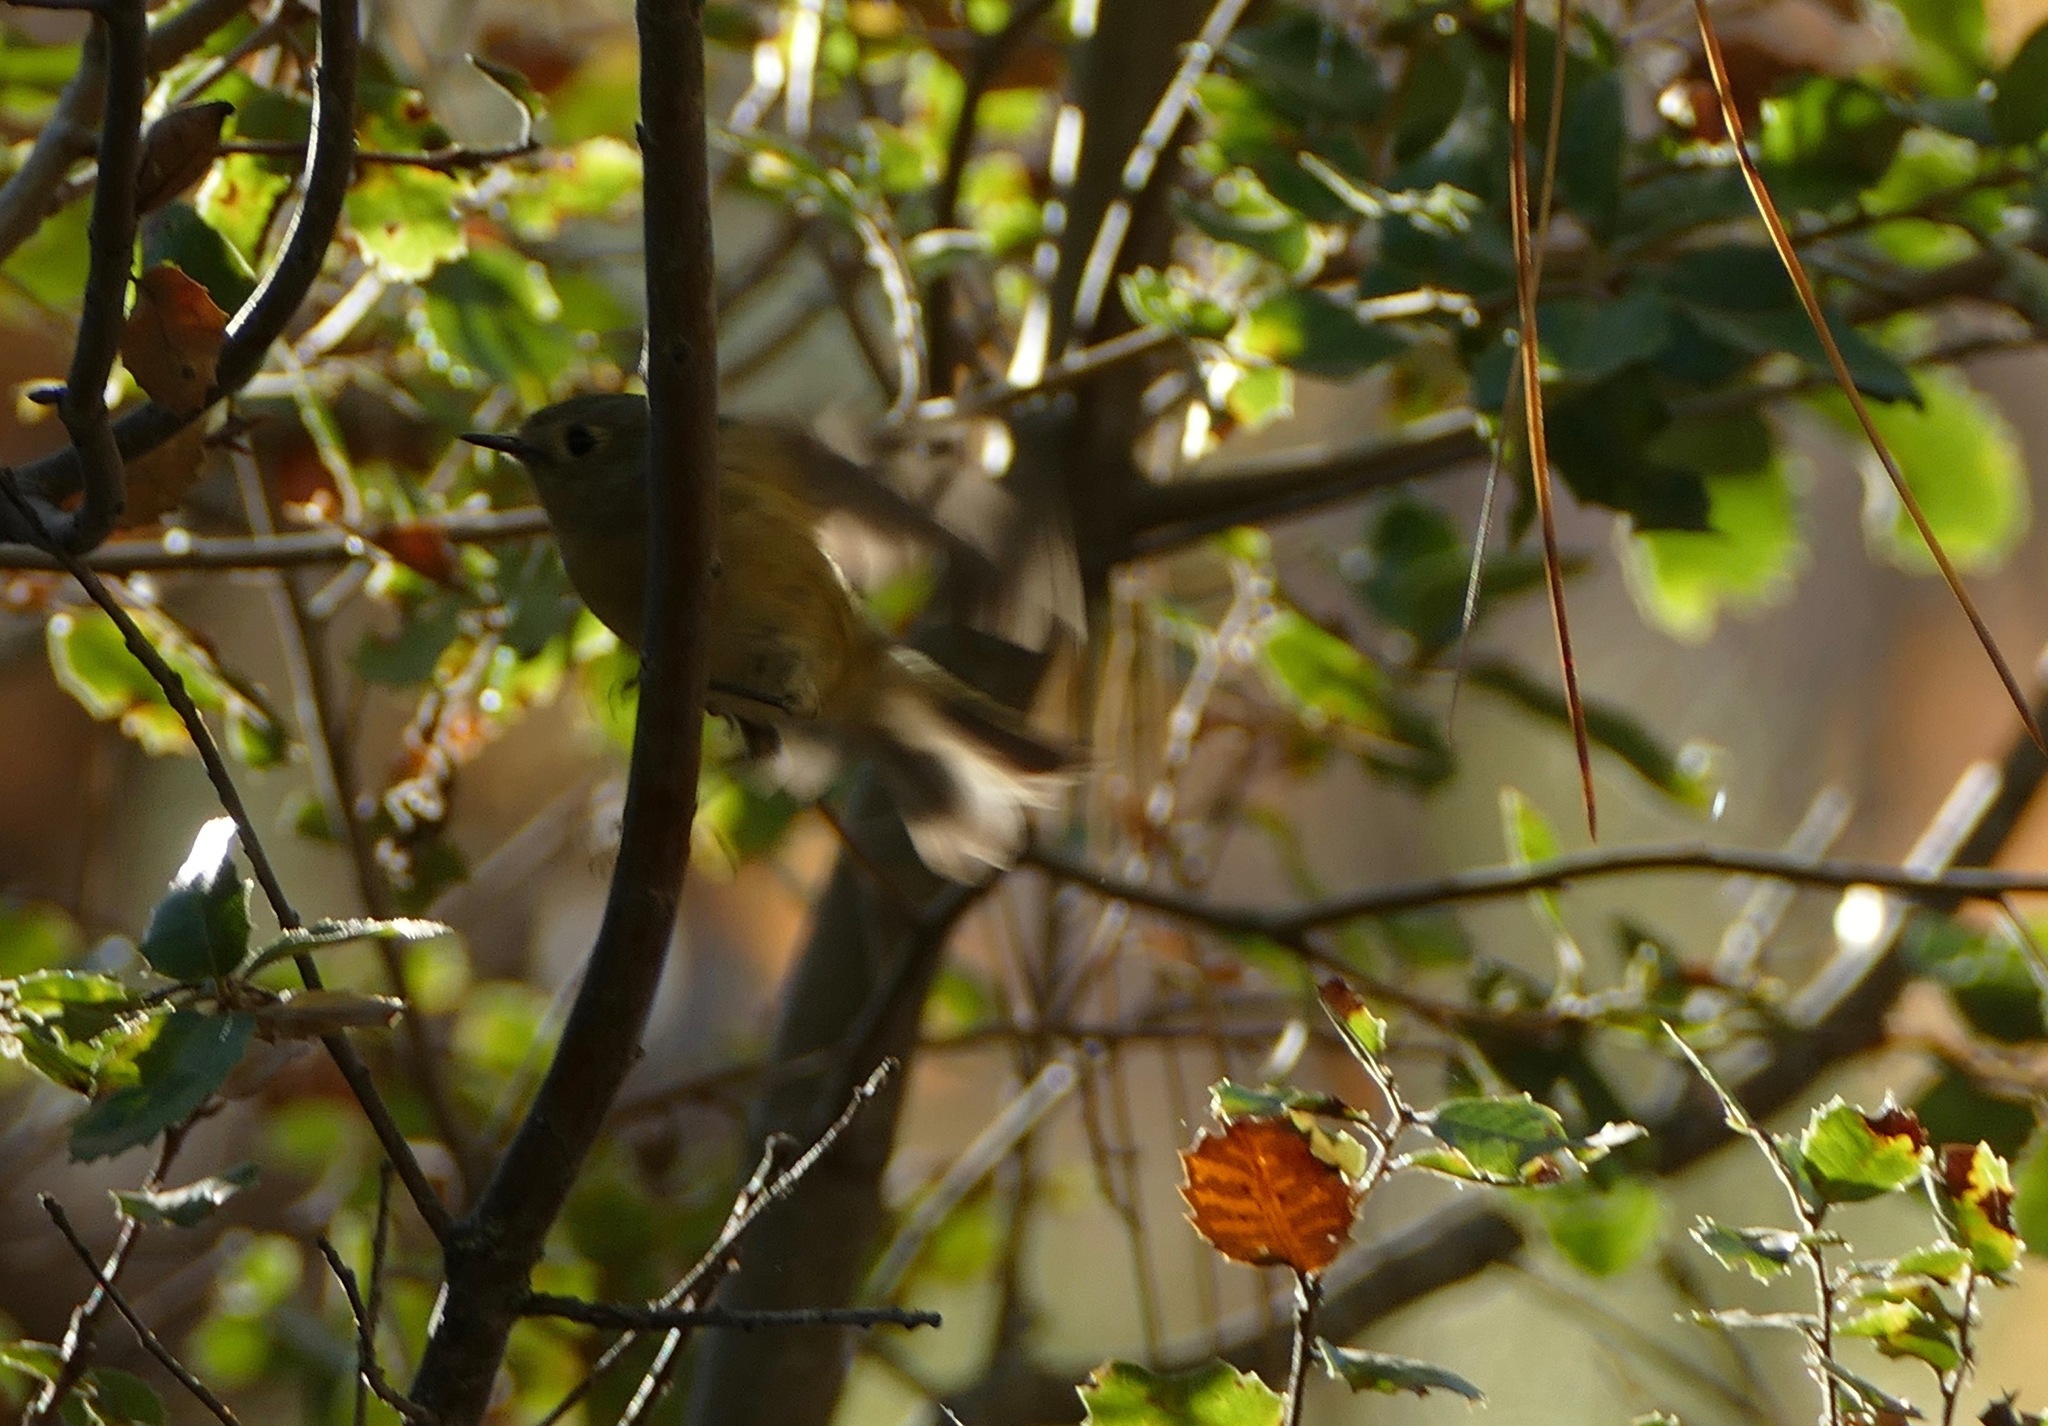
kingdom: Animalia
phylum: Chordata
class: Aves
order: Passeriformes
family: Regulidae
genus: Regulus
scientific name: Regulus calendula
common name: Ruby-crowned kinglet
